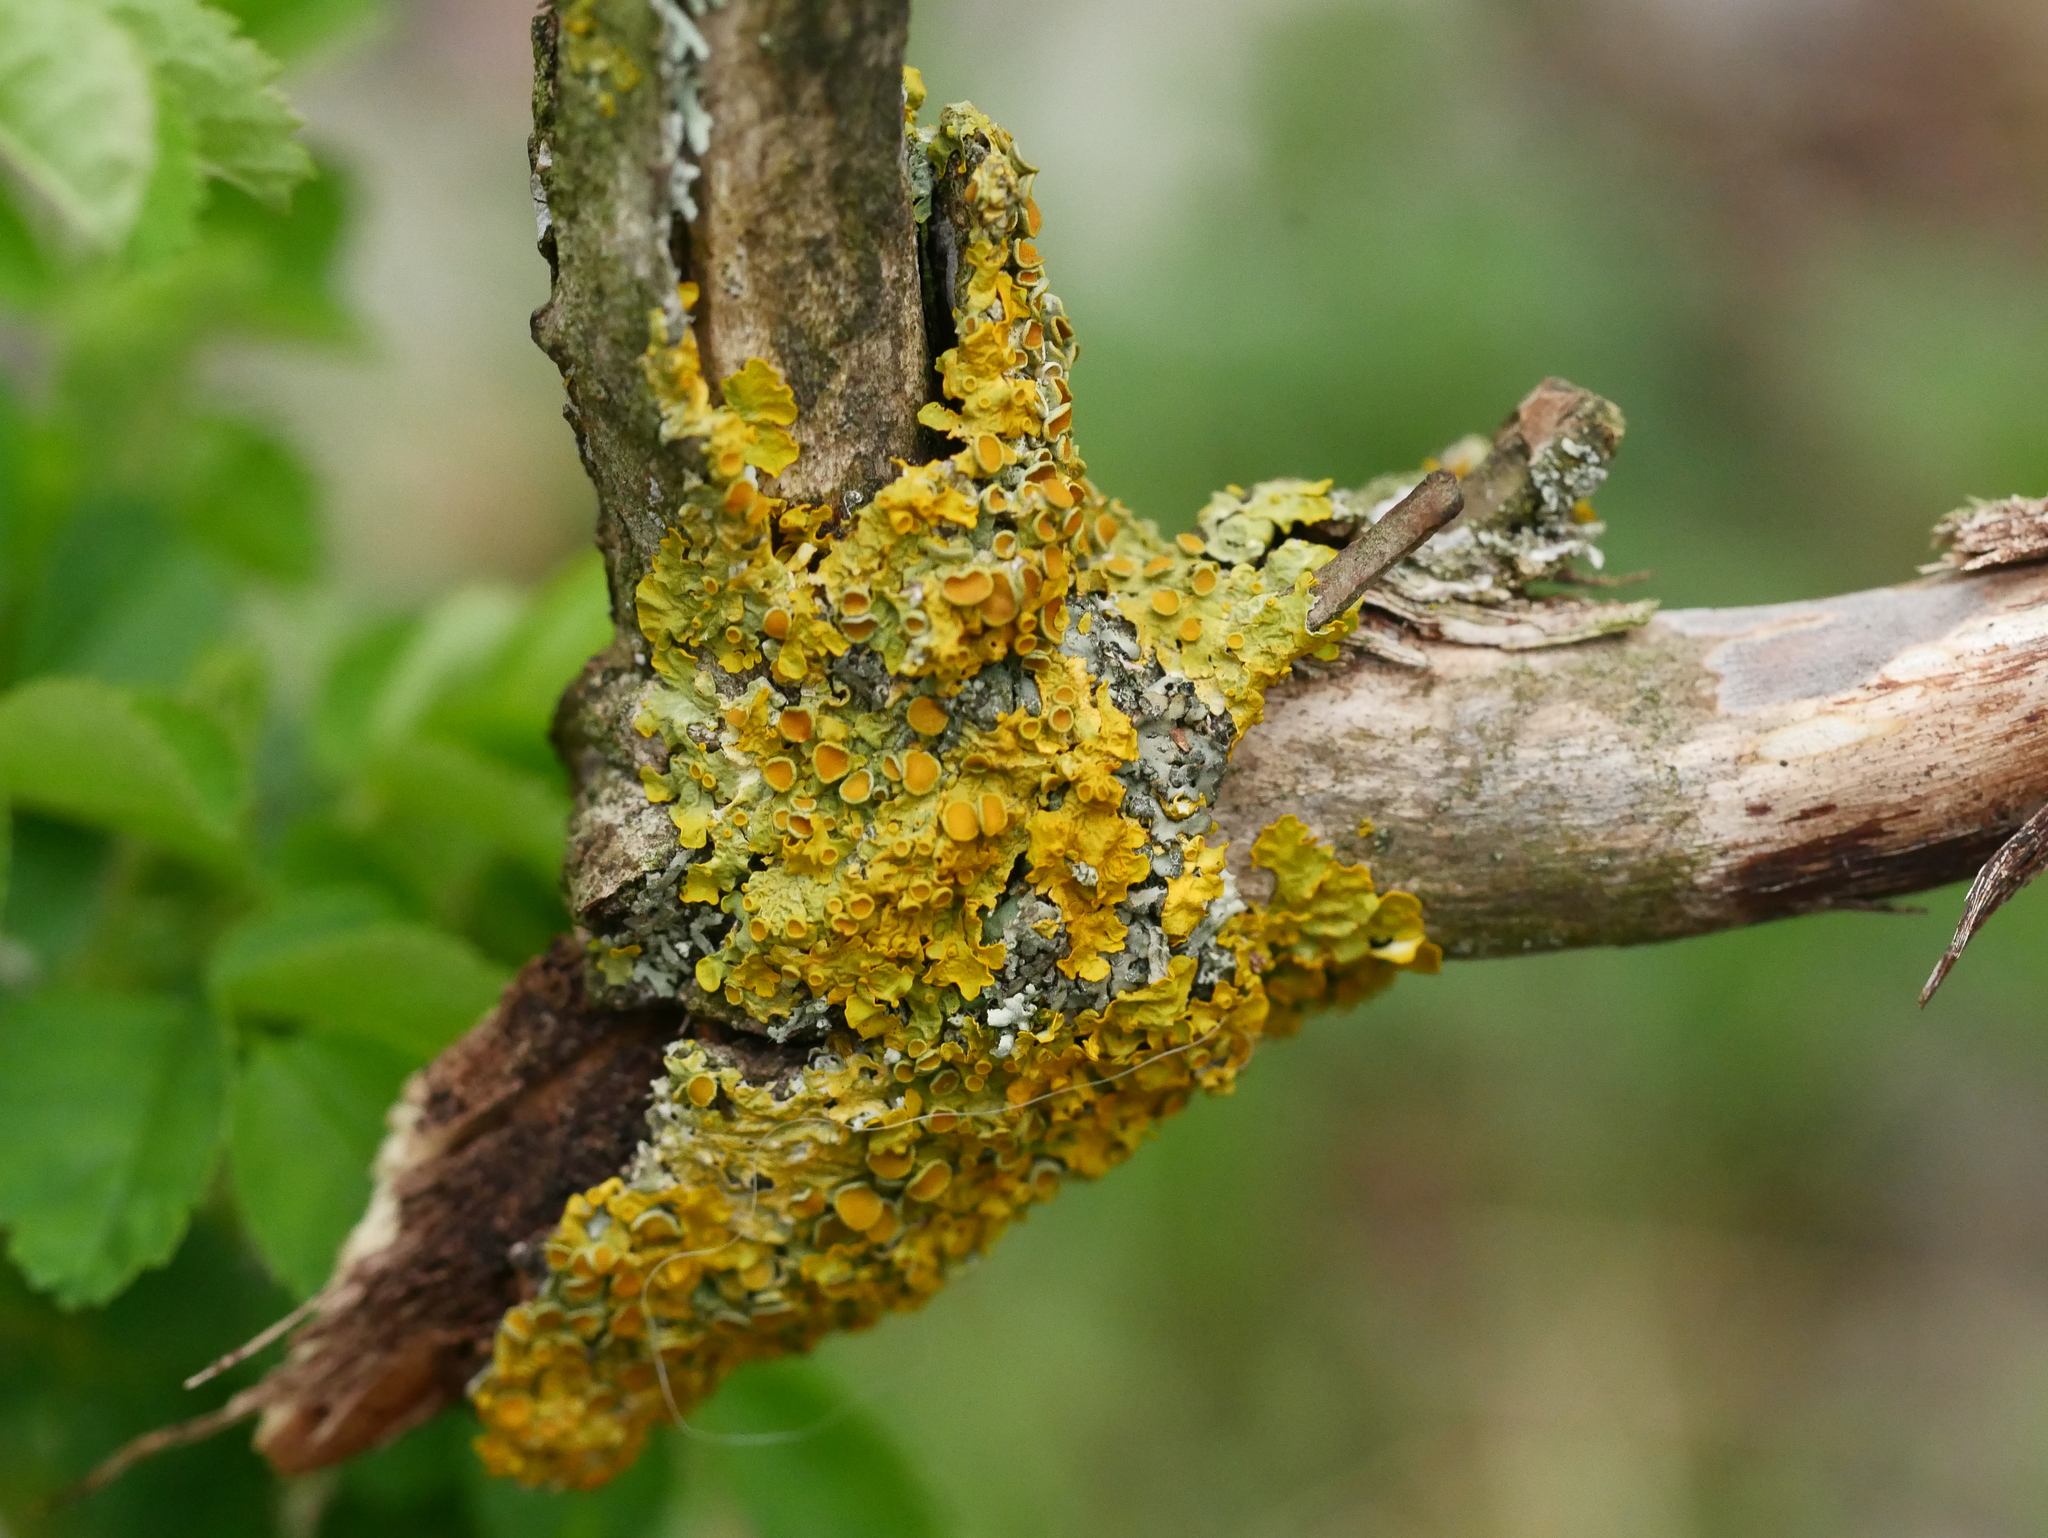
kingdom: Fungi
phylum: Ascomycota
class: Lecanoromycetes
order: Teloschistales
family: Teloschistaceae
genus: Xanthoria
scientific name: Xanthoria parietina
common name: Common orange lichen
